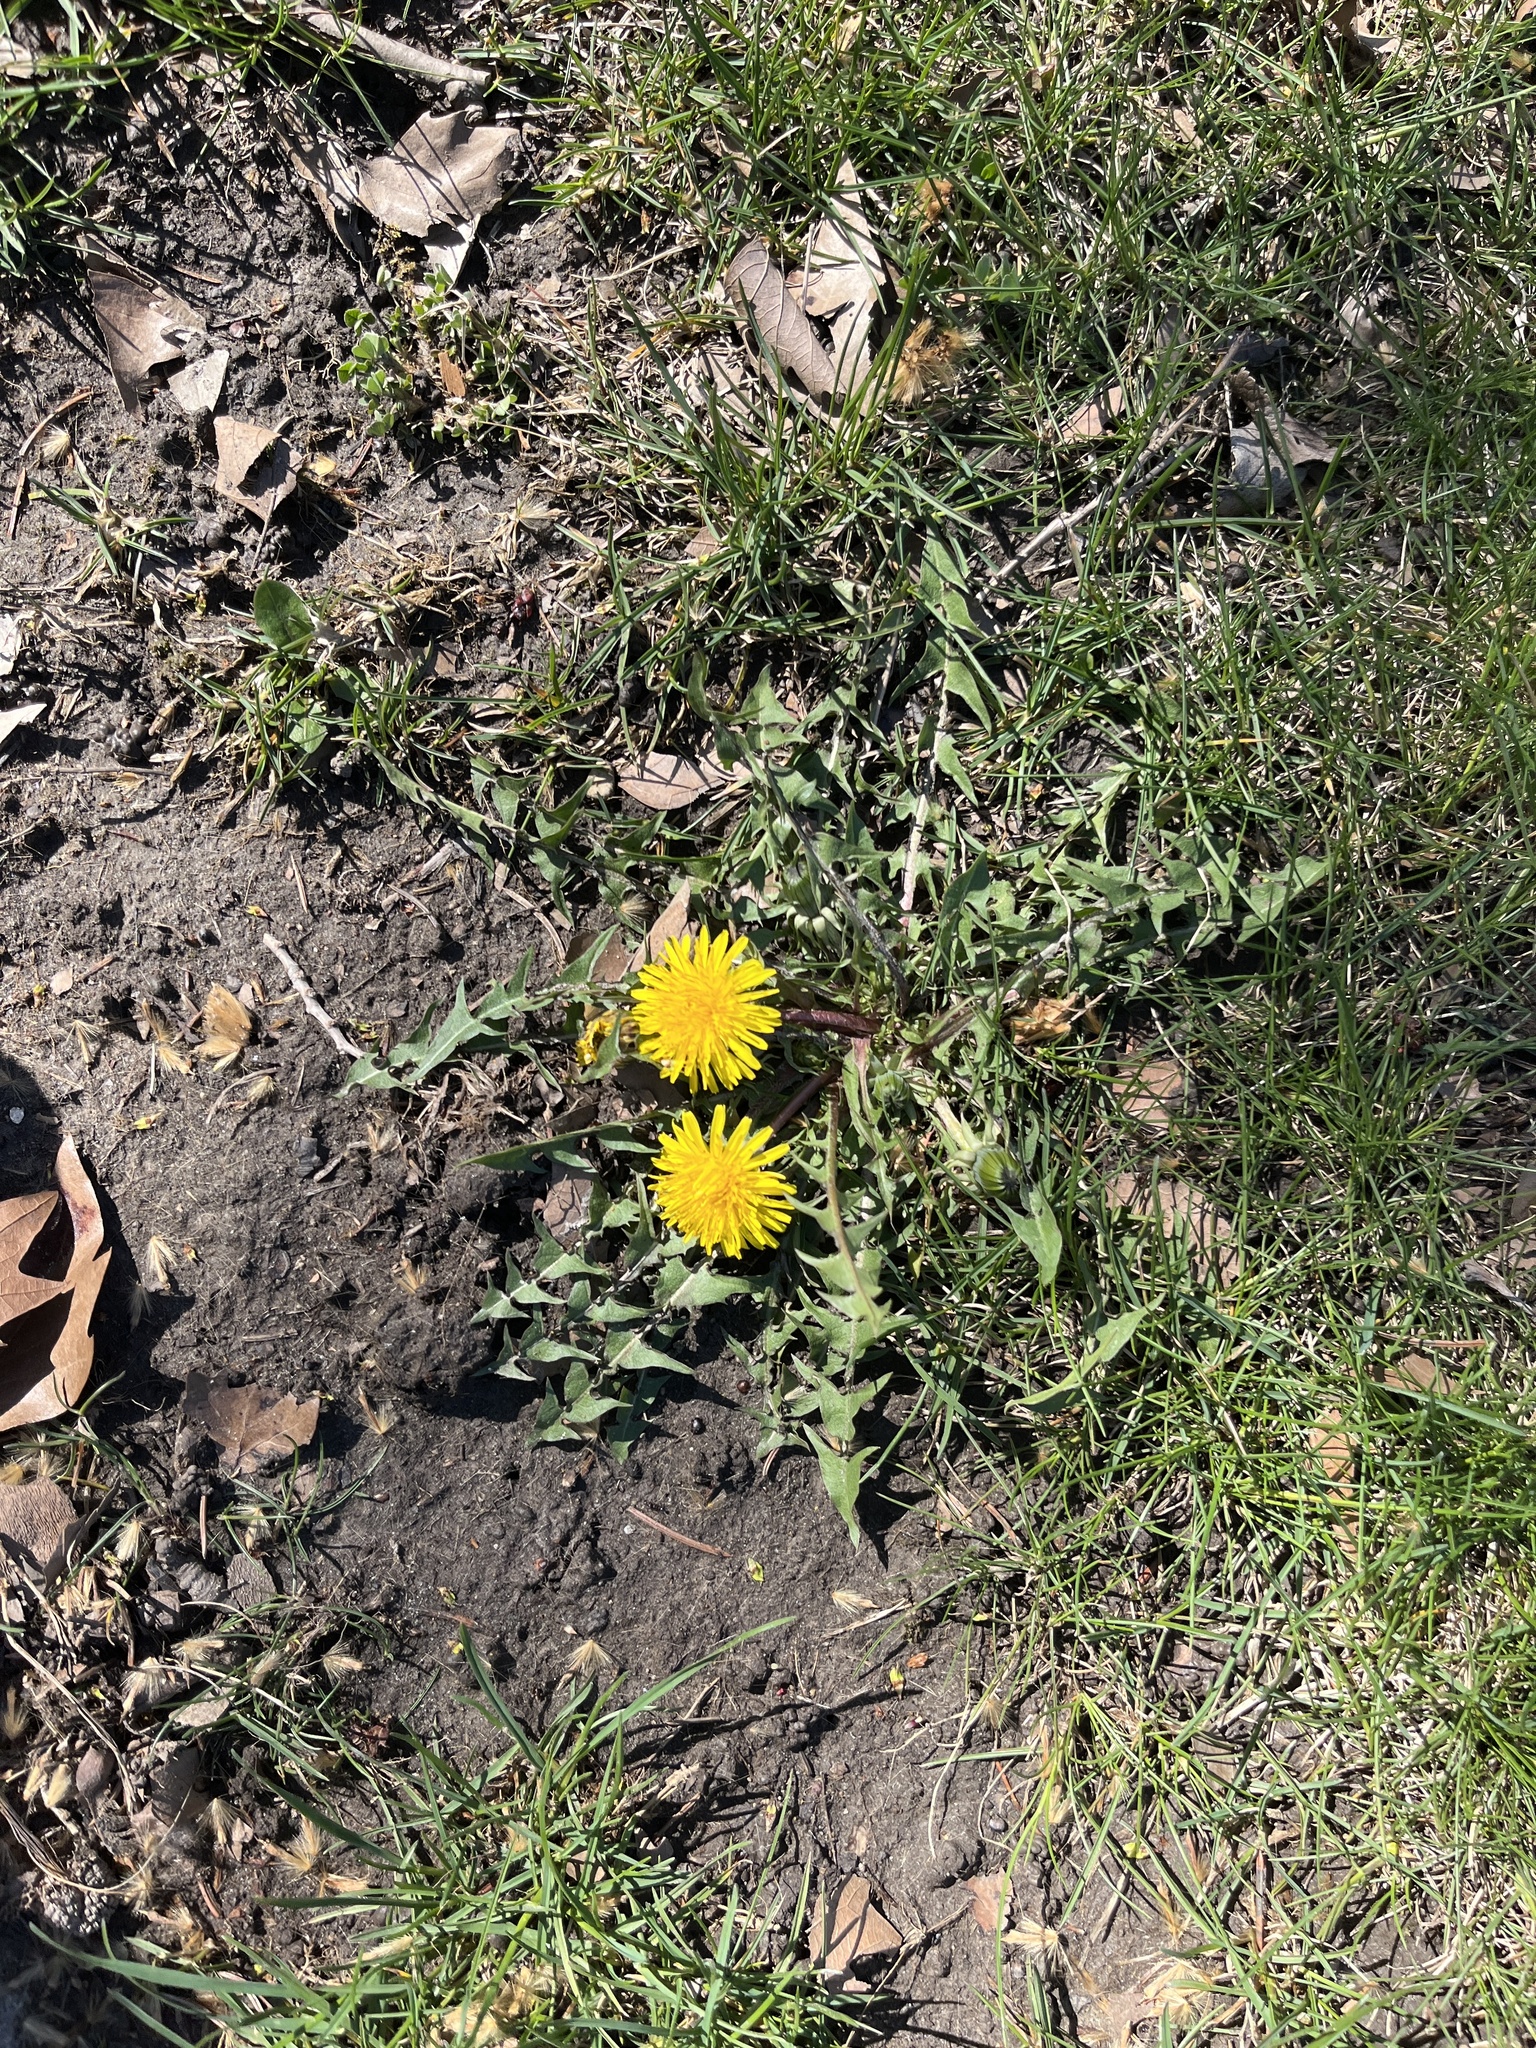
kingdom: Plantae
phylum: Tracheophyta
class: Magnoliopsida
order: Asterales
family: Asteraceae
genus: Taraxacum
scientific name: Taraxacum erythrospermum
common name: Rock dandelion
